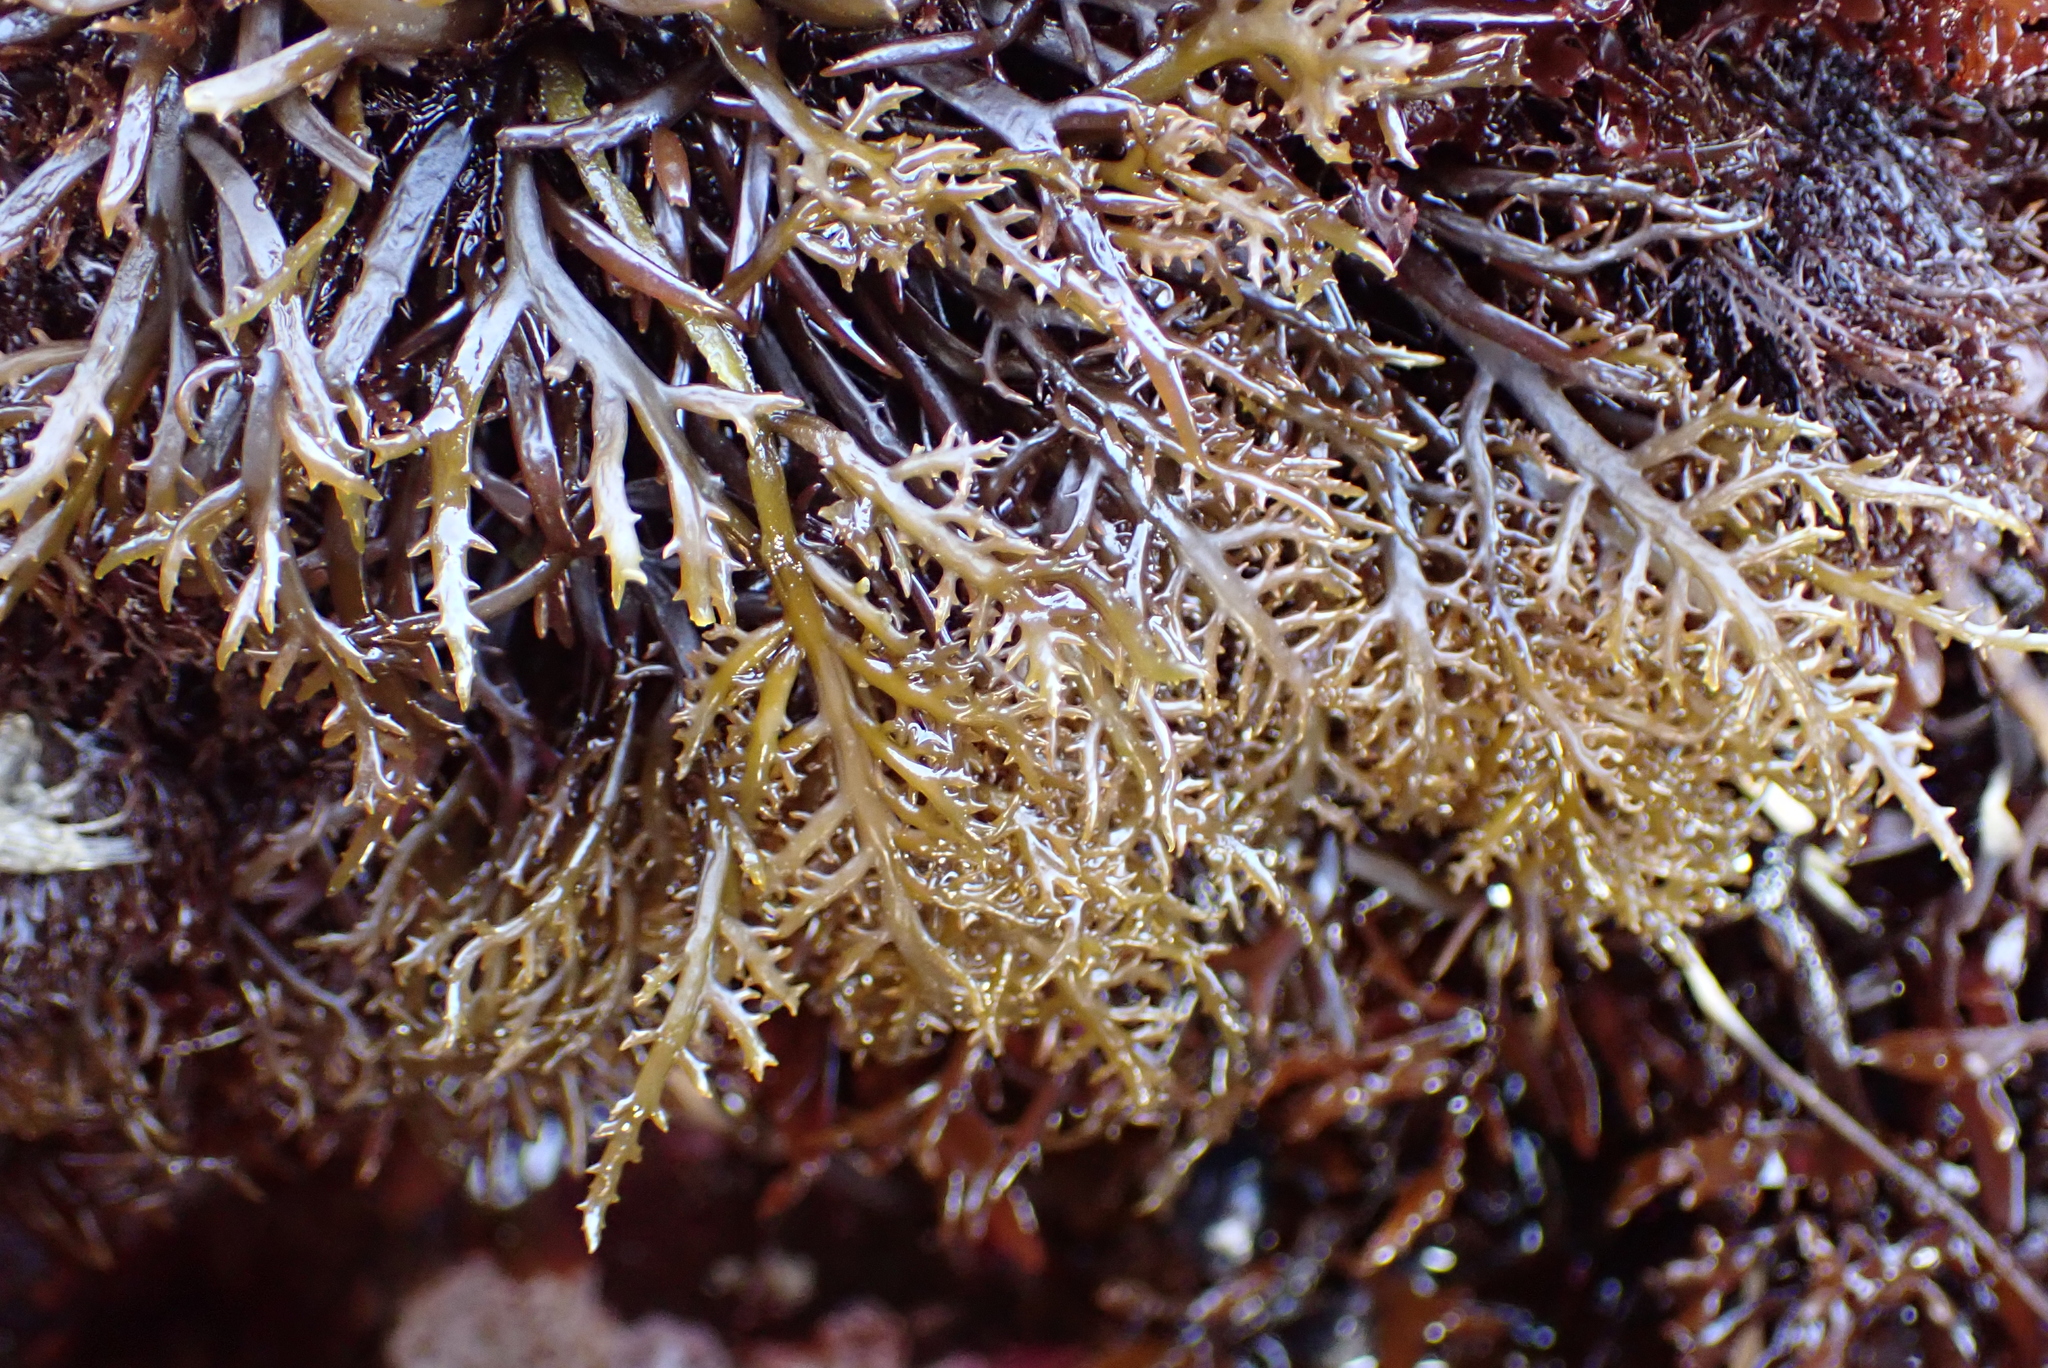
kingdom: Plantae
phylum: Rhodophyta
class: Florideophyceae
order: Gigartinales
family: Gigartinaceae
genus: Chondracanthus
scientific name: Chondracanthus canaliculatus
